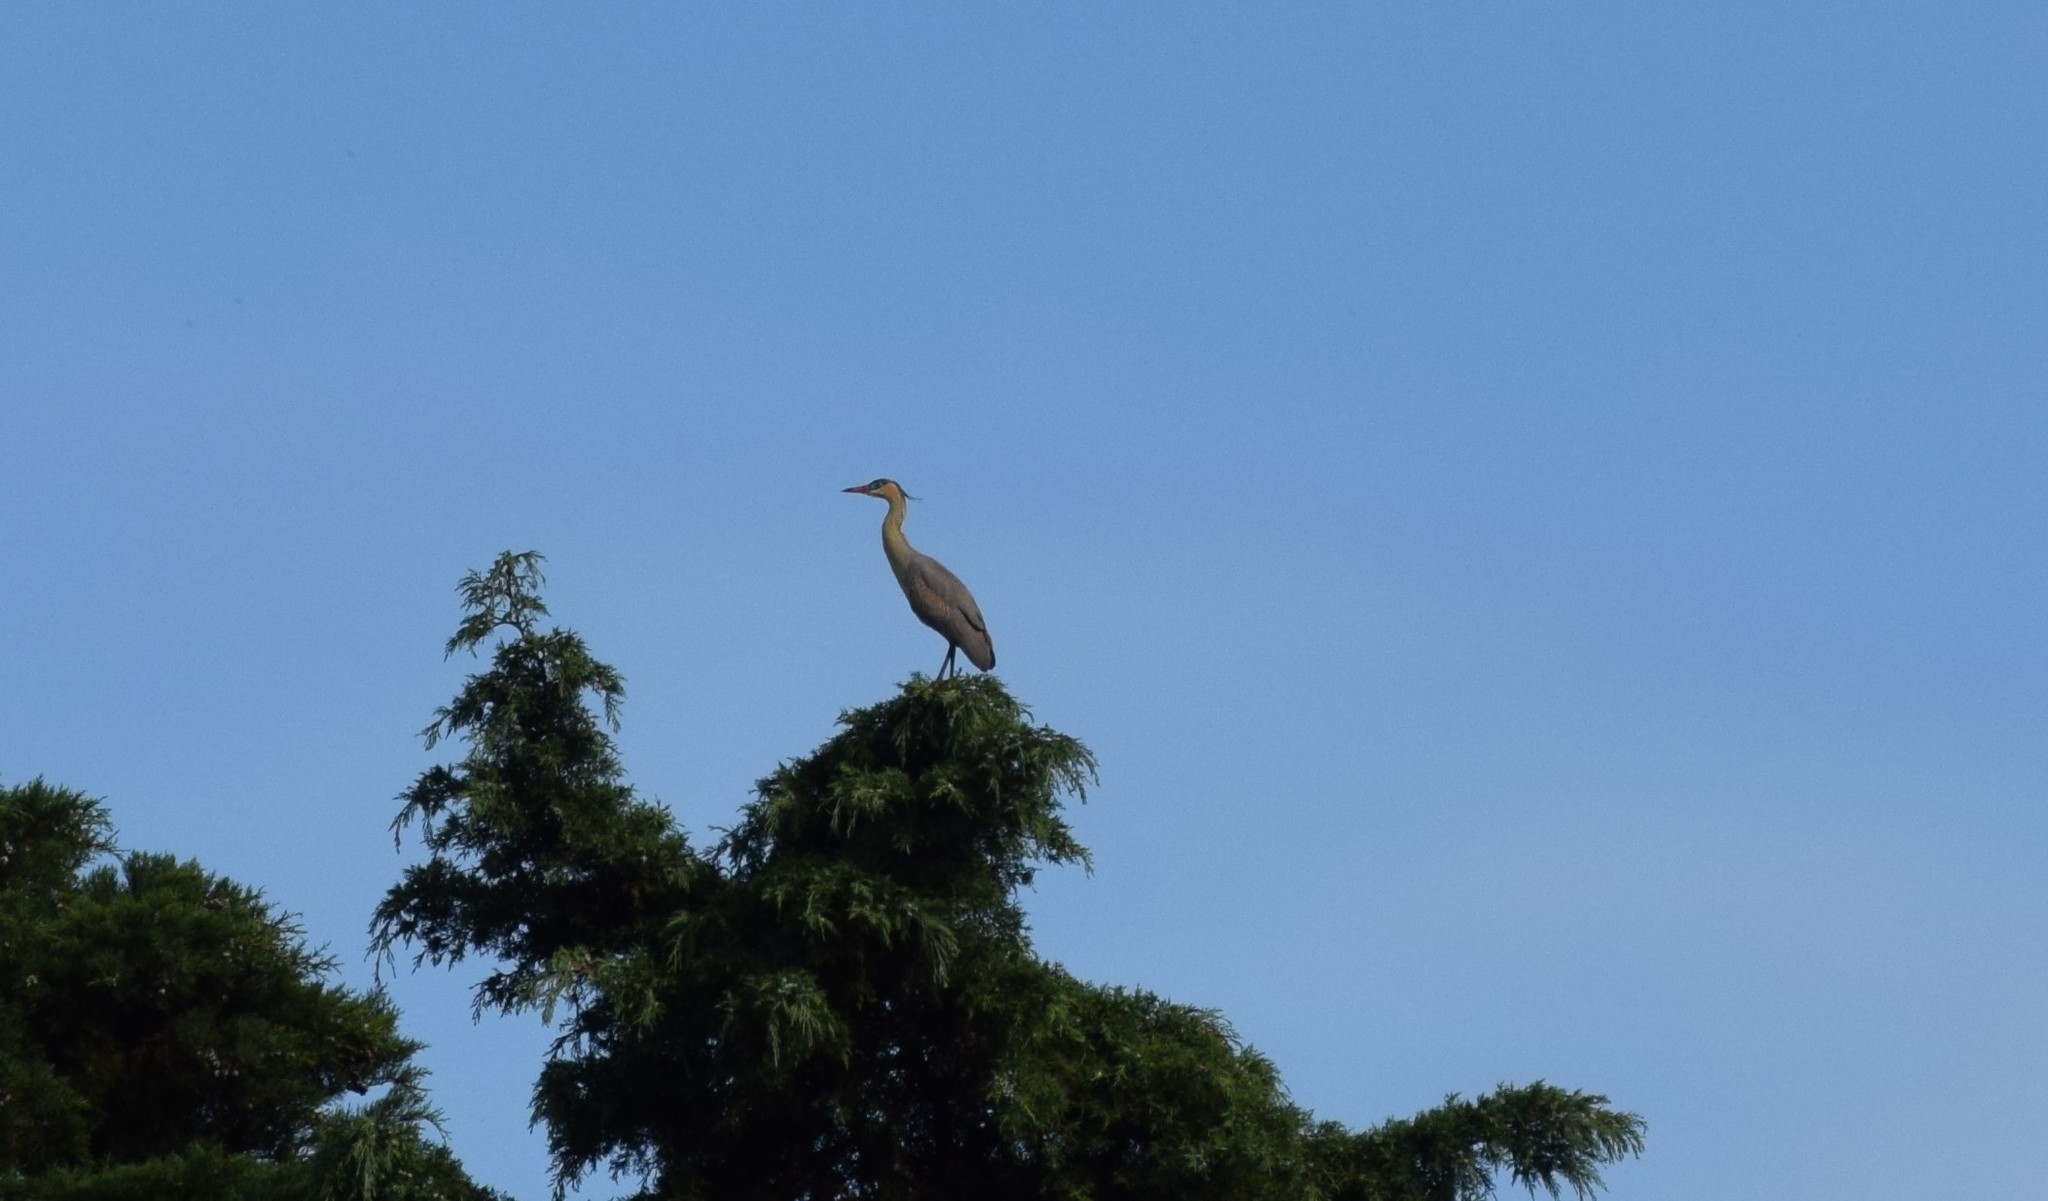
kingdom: Animalia
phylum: Chordata
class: Aves
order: Pelecaniformes
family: Ardeidae
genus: Syrigma
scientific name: Syrigma sibilatrix
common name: Whistling heron
